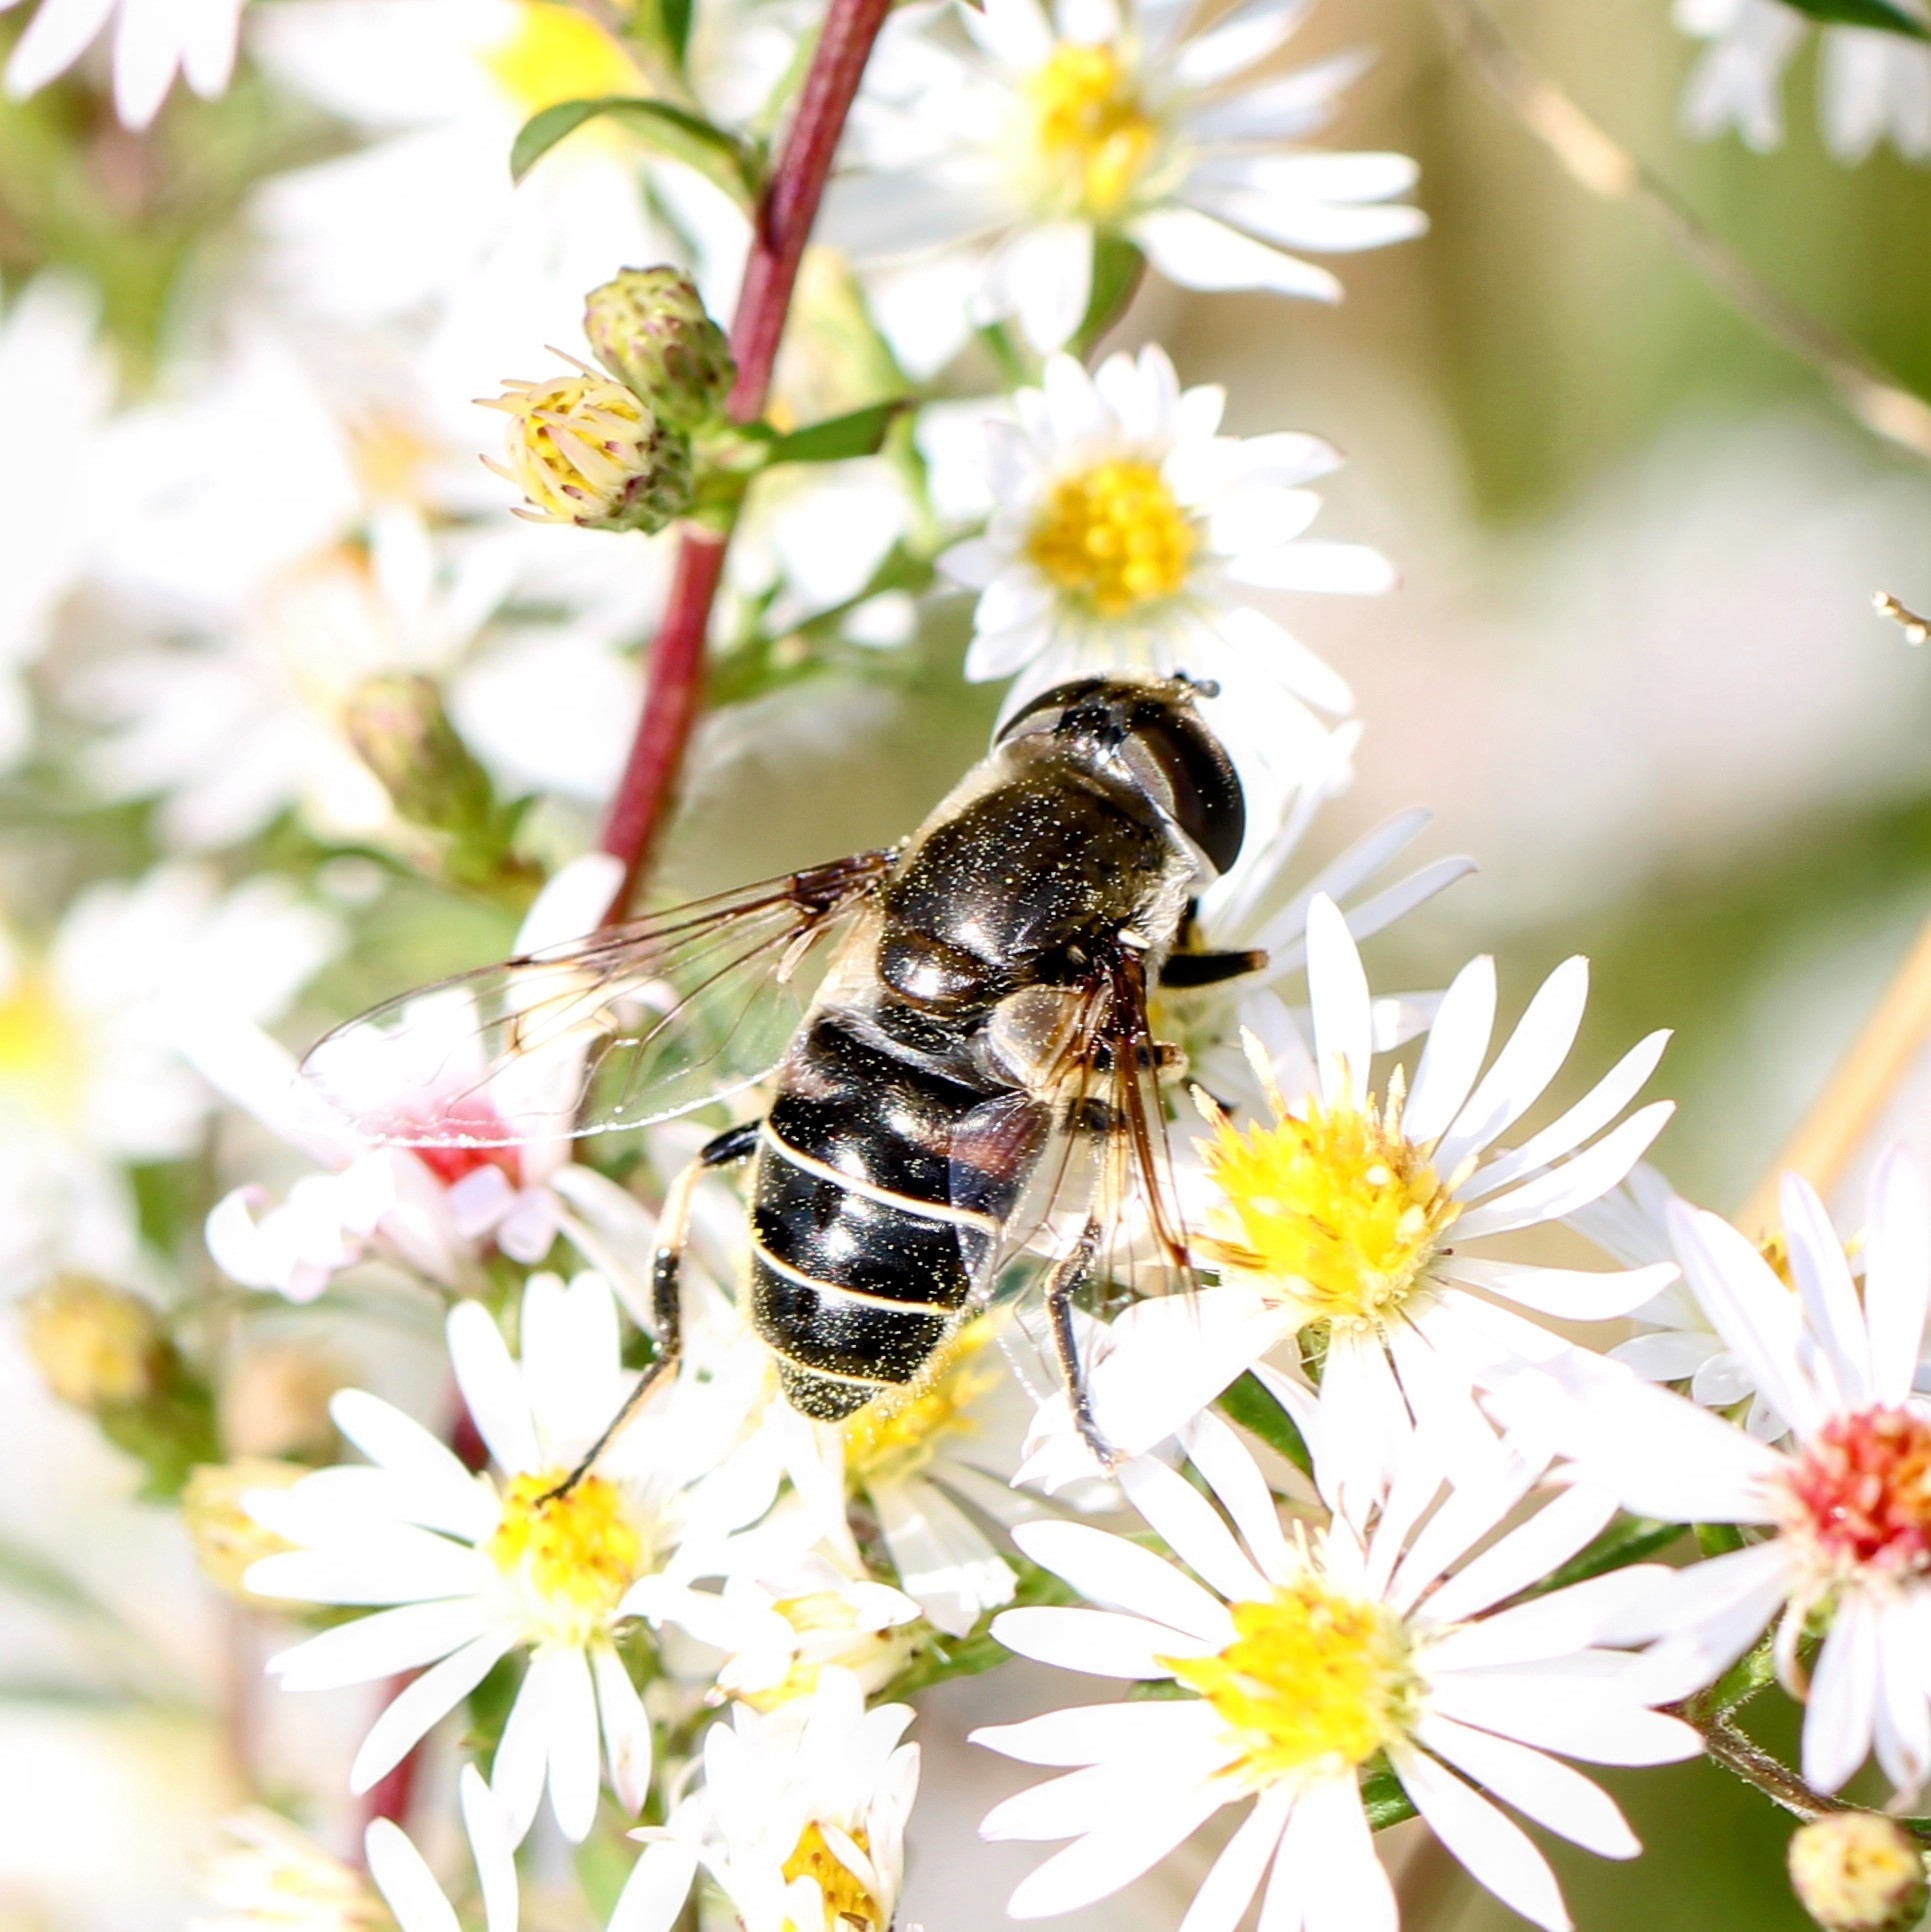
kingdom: Animalia
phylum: Arthropoda
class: Insecta
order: Diptera
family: Syrphidae
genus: Eristalis
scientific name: Eristalis dimidiata
